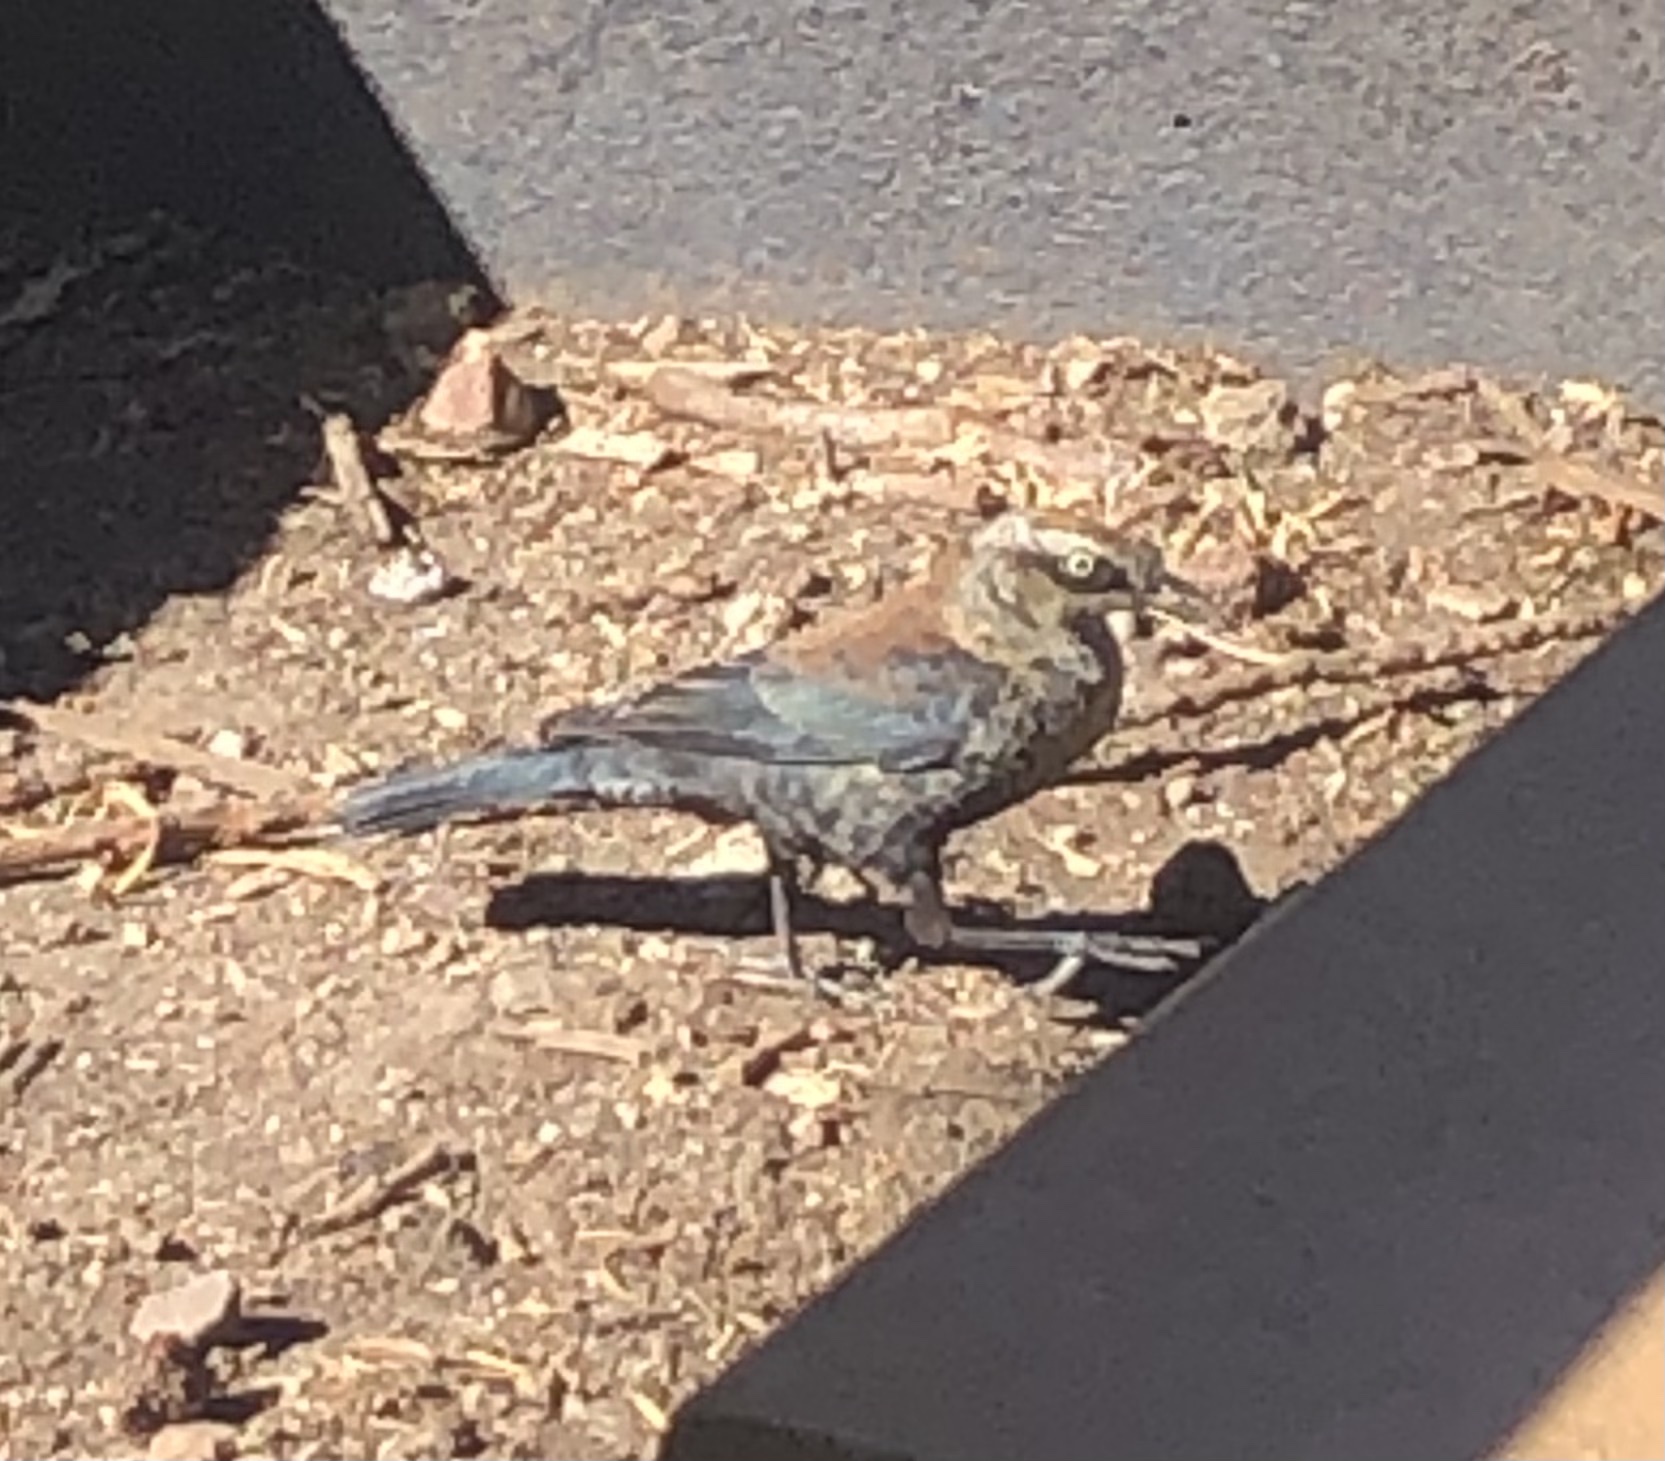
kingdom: Animalia
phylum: Chordata
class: Aves
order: Passeriformes
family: Icteridae
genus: Euphagus
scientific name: Euphagus carolinus
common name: Rusty blackbird
